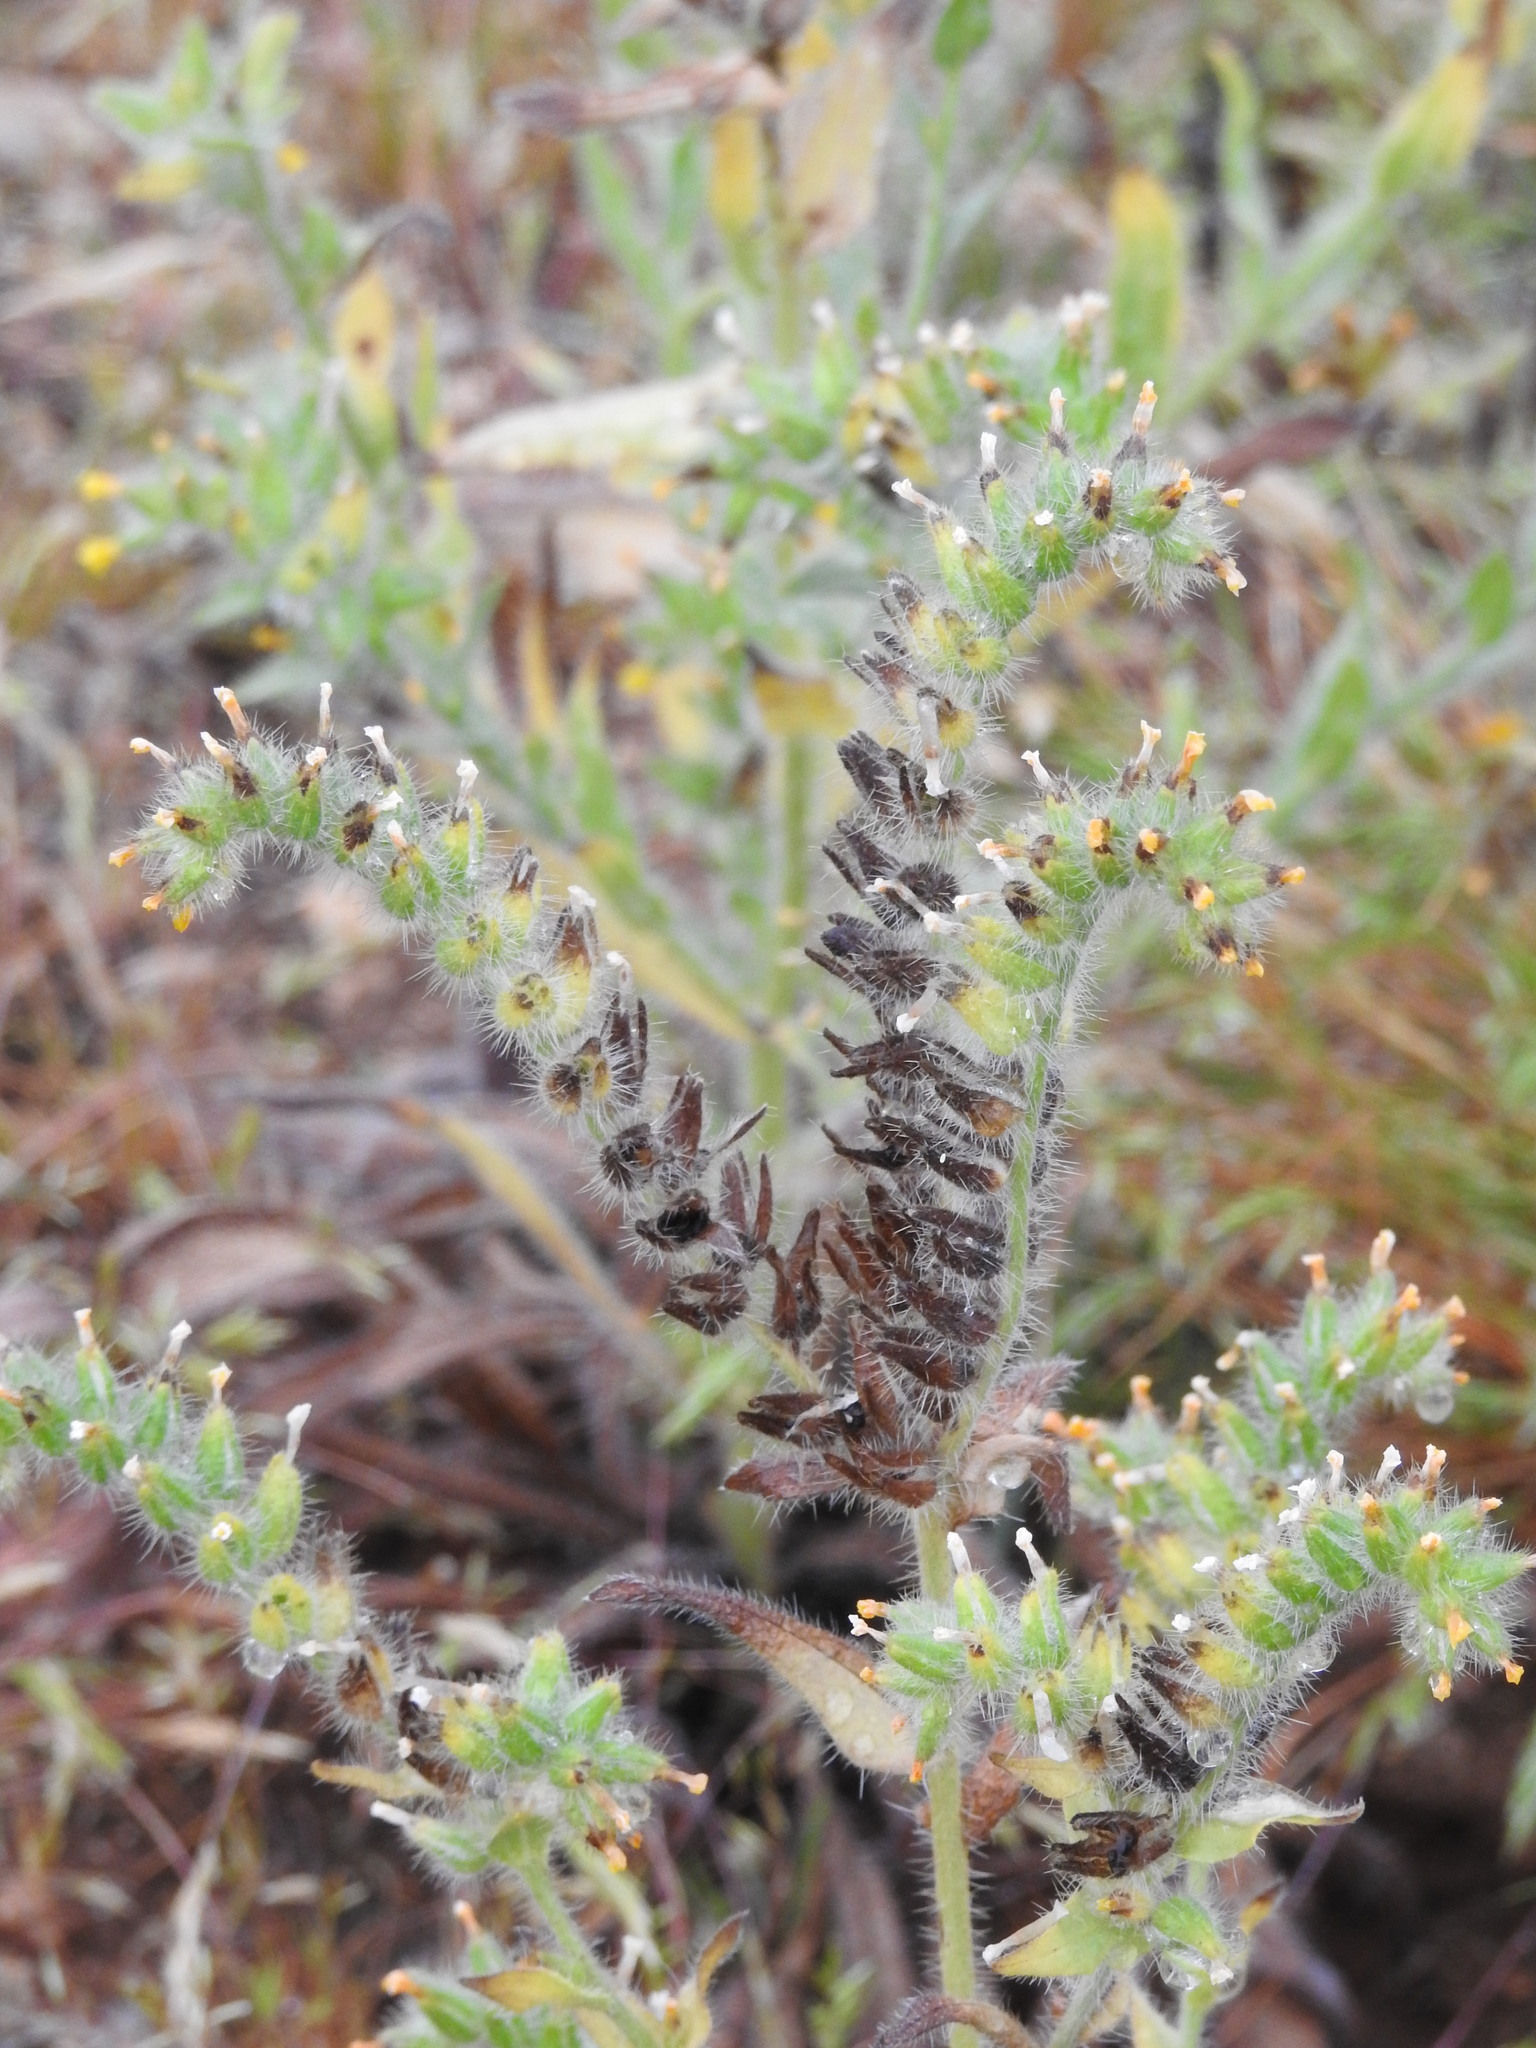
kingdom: Plantae
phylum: Tracheophyta
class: Magnoliopsida
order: Boraginales
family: Boraginaceae
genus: Amsinckia
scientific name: Amsinckia tessellata
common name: Tessellate fiddleneck
